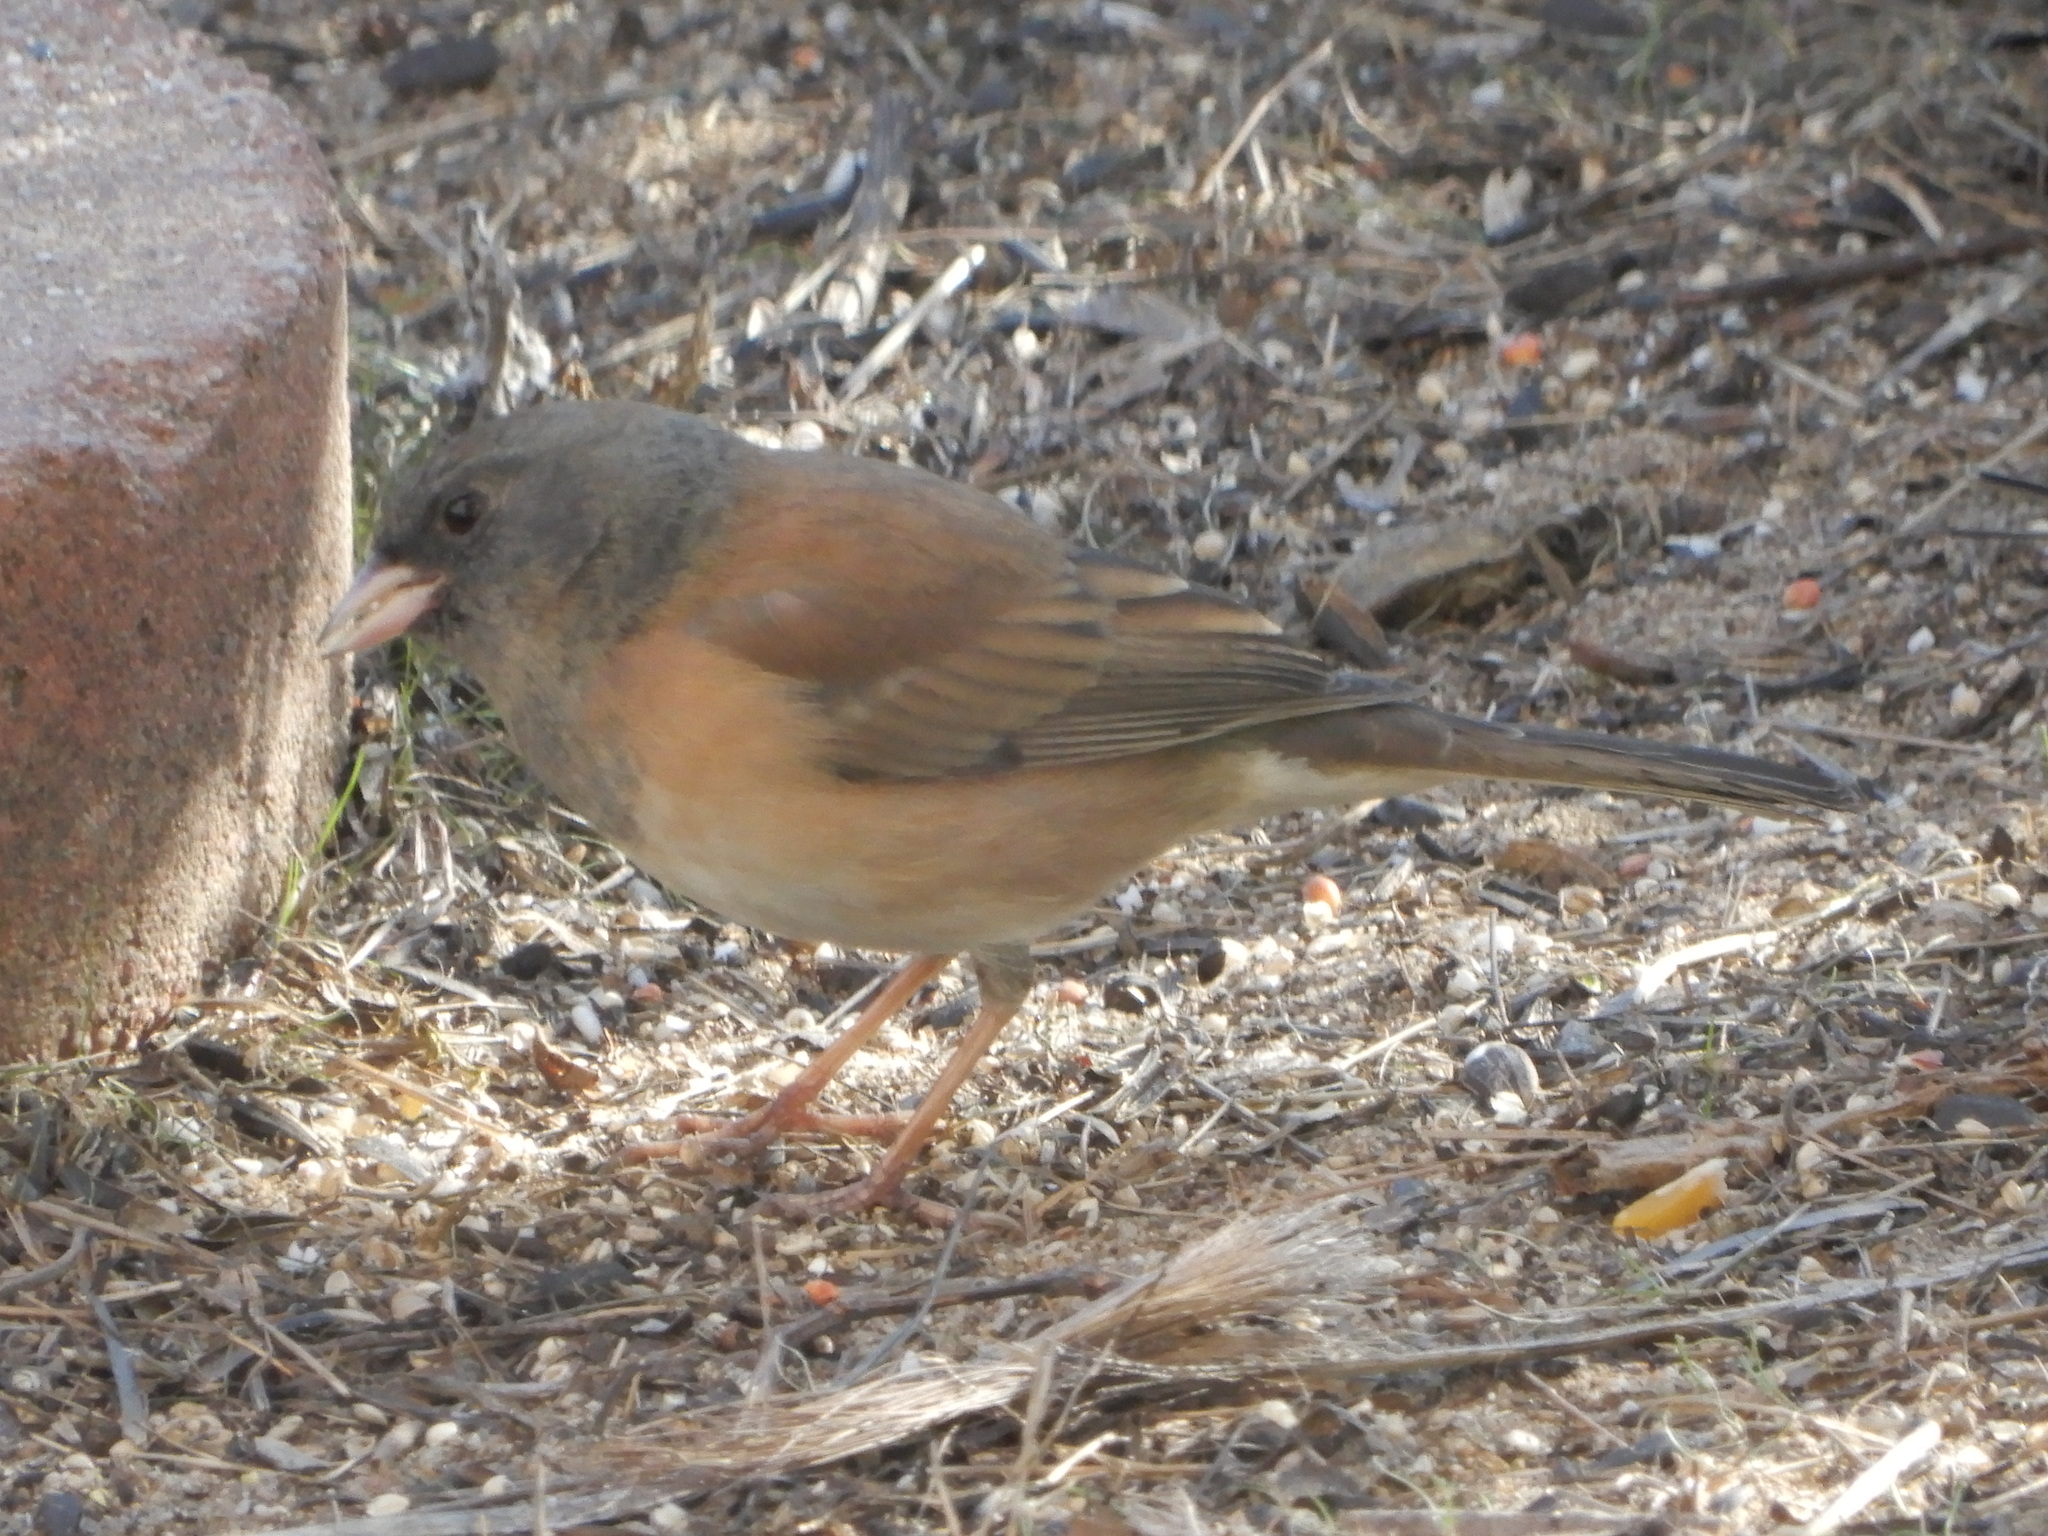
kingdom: Animalia
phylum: Chordata
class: Aves
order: Passeriformes
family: Passerellidae
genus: Junco
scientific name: Junco hyemalis
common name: Dark-eyed junco
